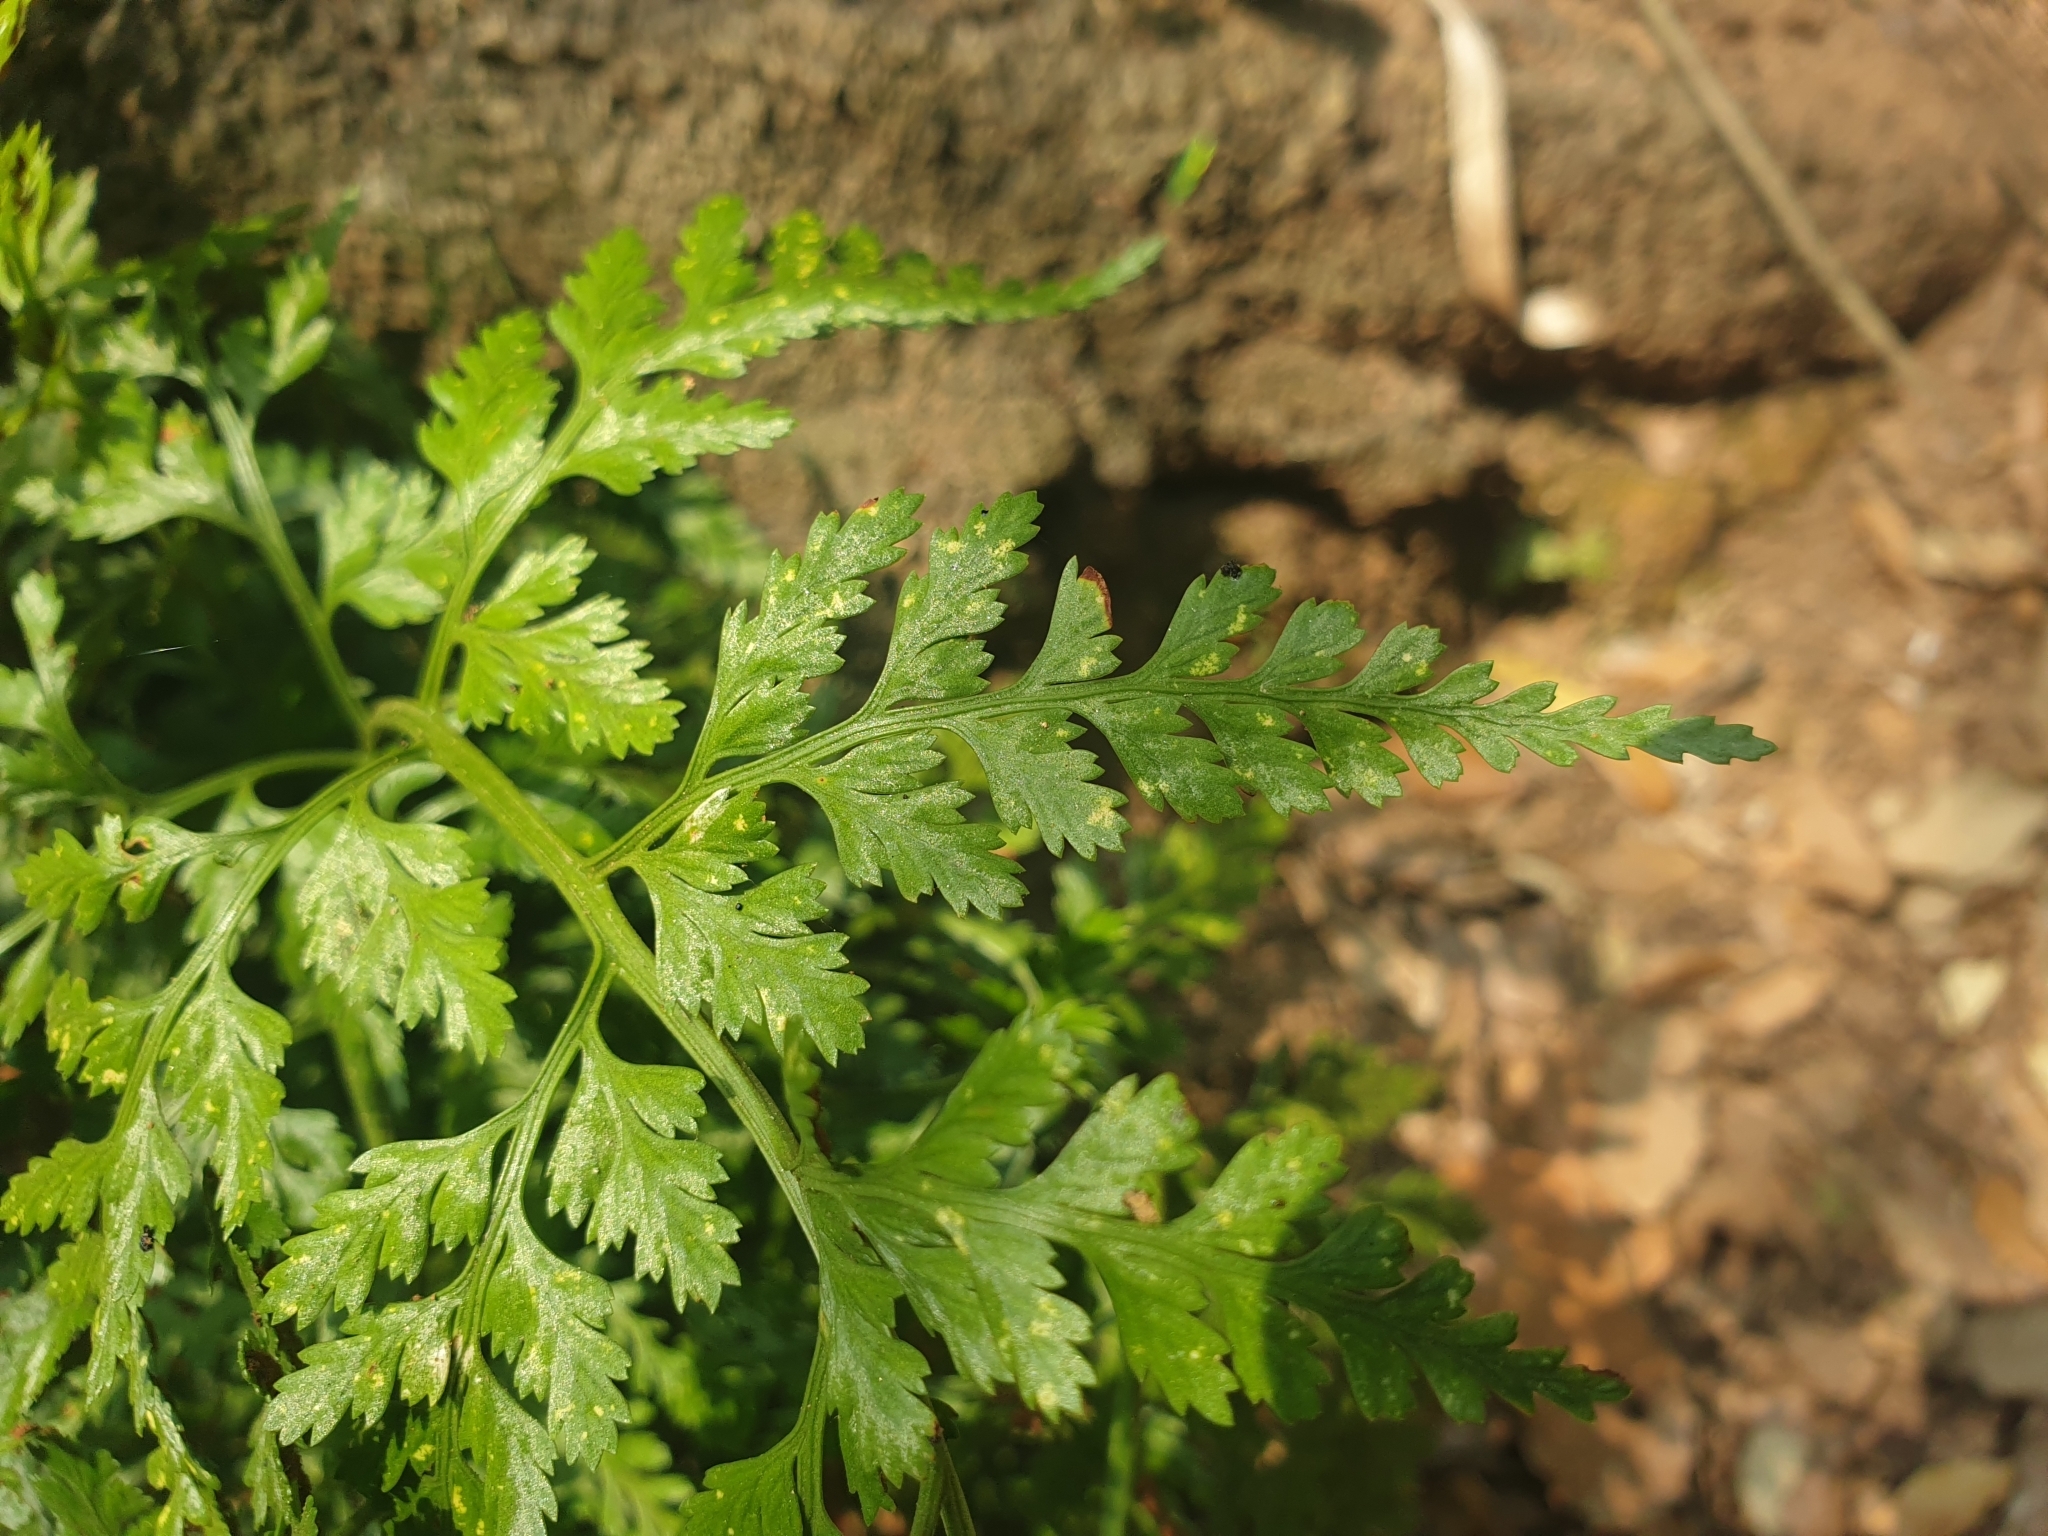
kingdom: Plantae
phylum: Tracheophyta
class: Polypodiopsida
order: Polypodiales
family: Aspleniaceae
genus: Asplenium
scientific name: Asplenium onopteris
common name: Irish spleenwort
